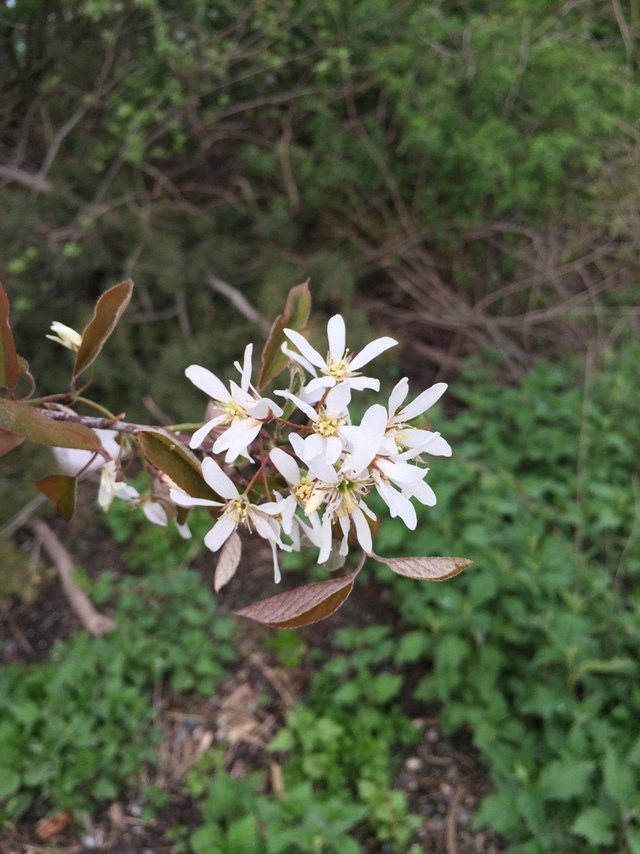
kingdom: Plantae
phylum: Tracheophyta
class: Magnoliopsida
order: Rosales
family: Rosaceae
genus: Amelanchier
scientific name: Amelanchier lamarckii
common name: Juneberry
